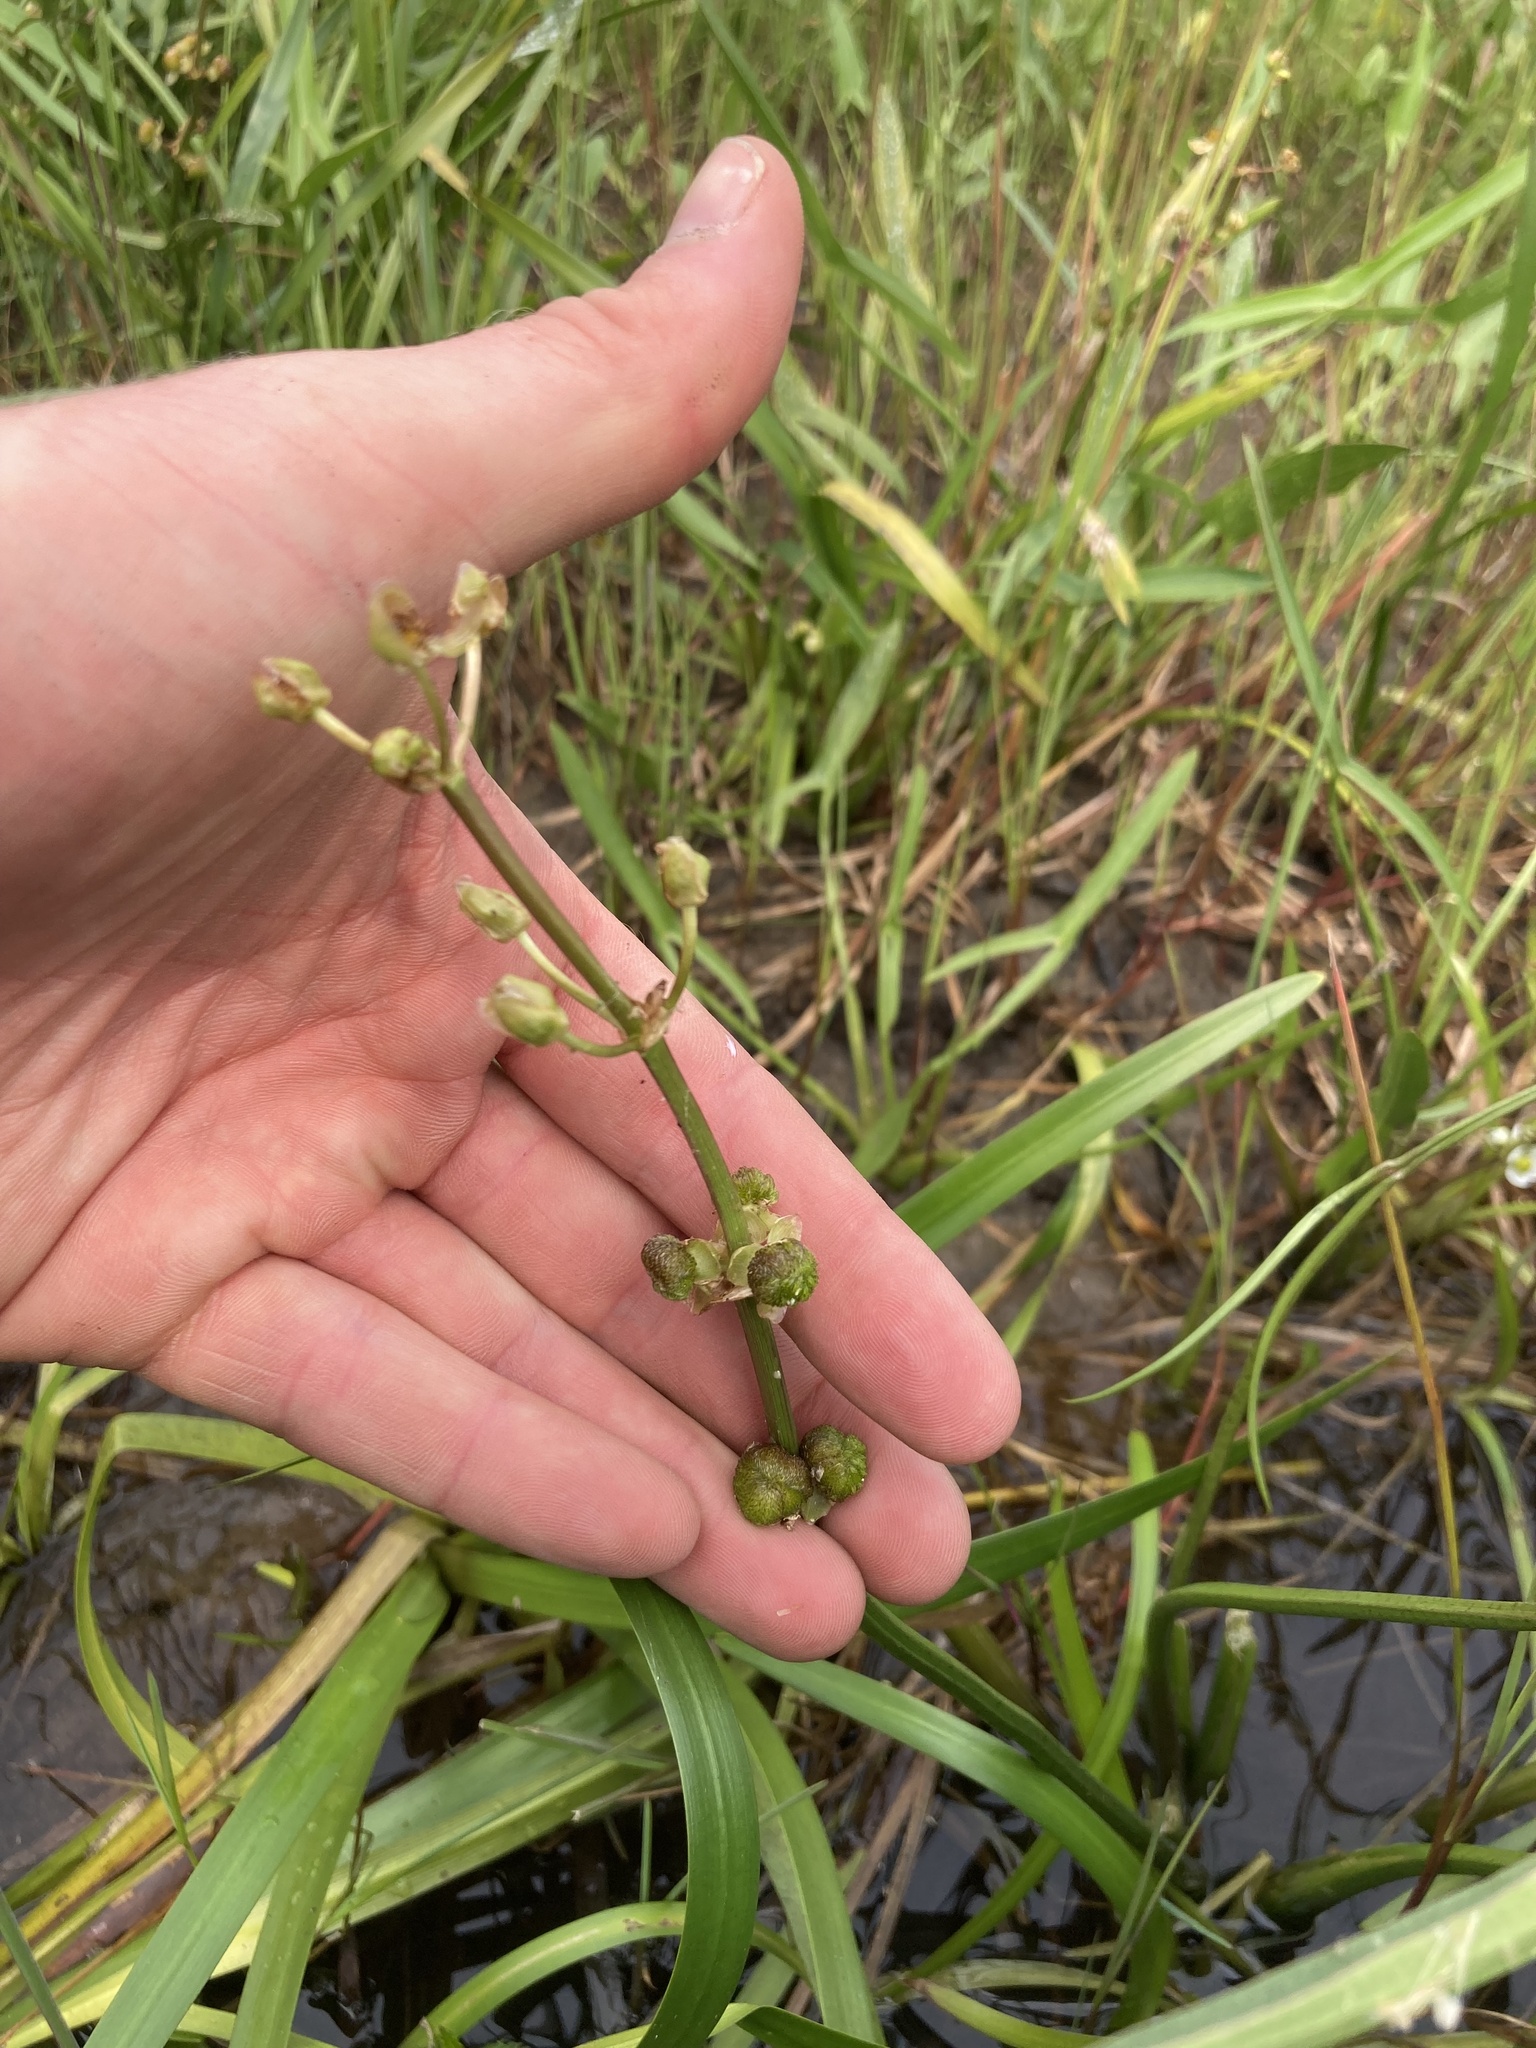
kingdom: Plantae
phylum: Tracheophyta
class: Liliopsida
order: Alismatales
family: Alismataceae
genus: Sagittaria
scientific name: Sagittaria latifolia
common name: Duck-potato
